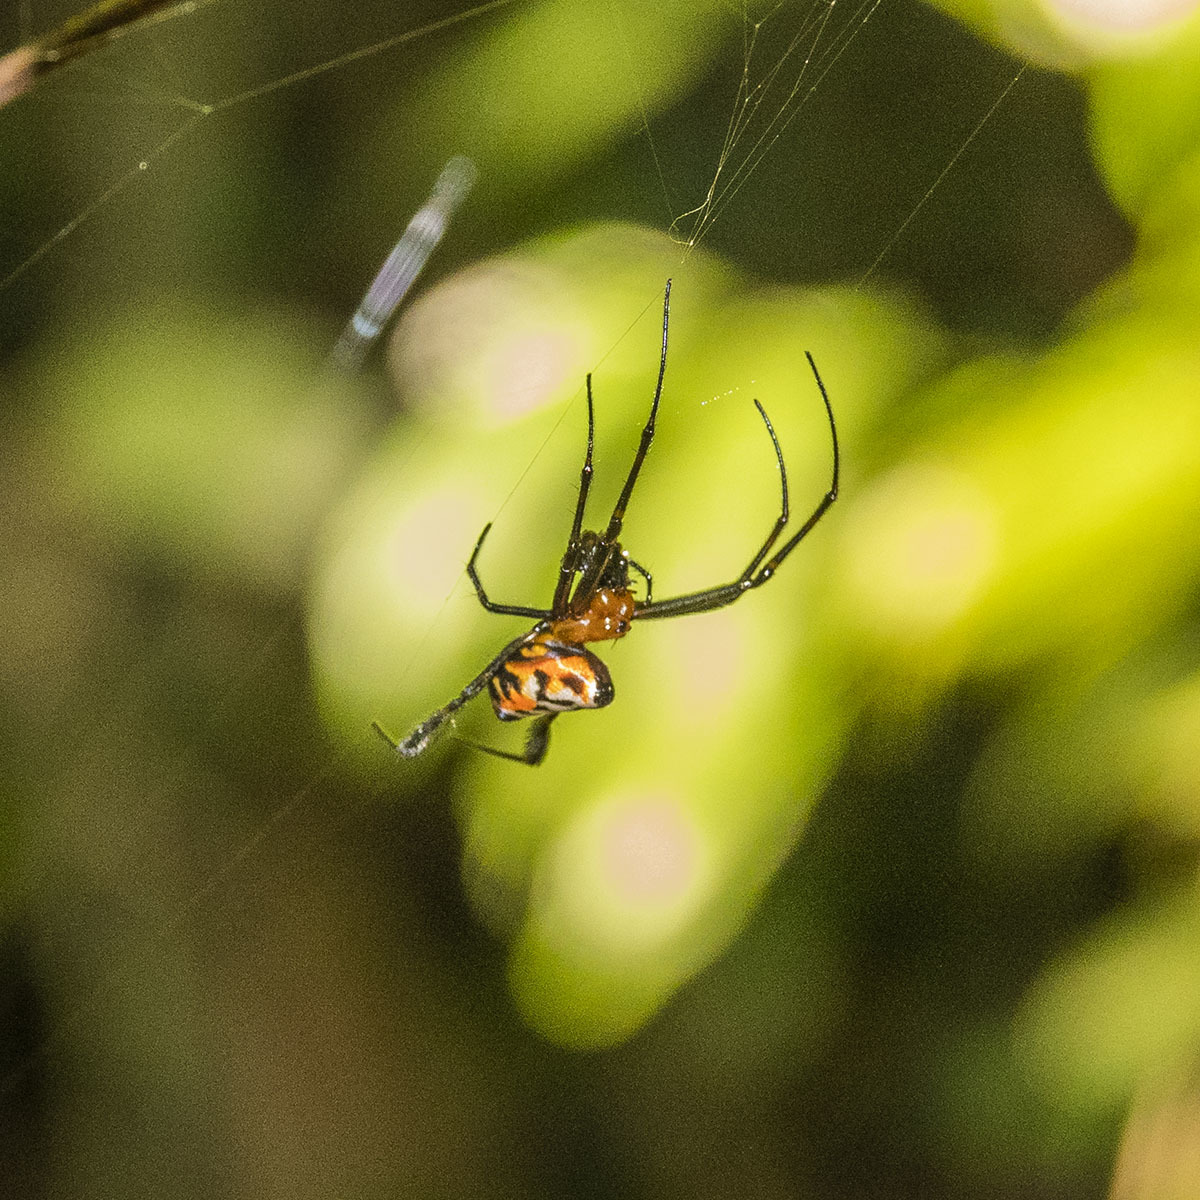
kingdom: Animalia
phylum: Arthropoda
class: Arachnida
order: Araneae
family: Tetragnathidae
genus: Leucauge
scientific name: Leucauge fastigata
